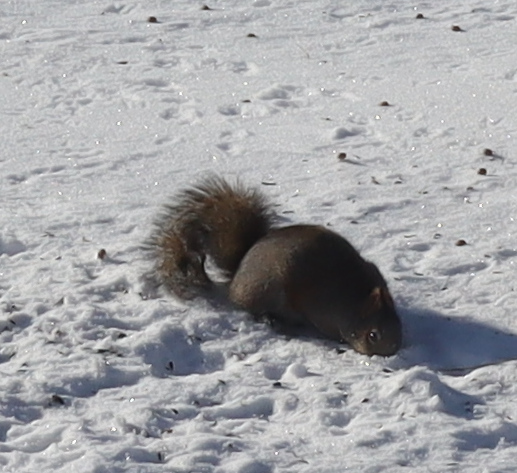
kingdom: Animalia
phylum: Chordata
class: Mammalia
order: Rodentia
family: Sciuridae
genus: Sciurus
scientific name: Sciurus carolinensis
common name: Eastern gray squirrel
